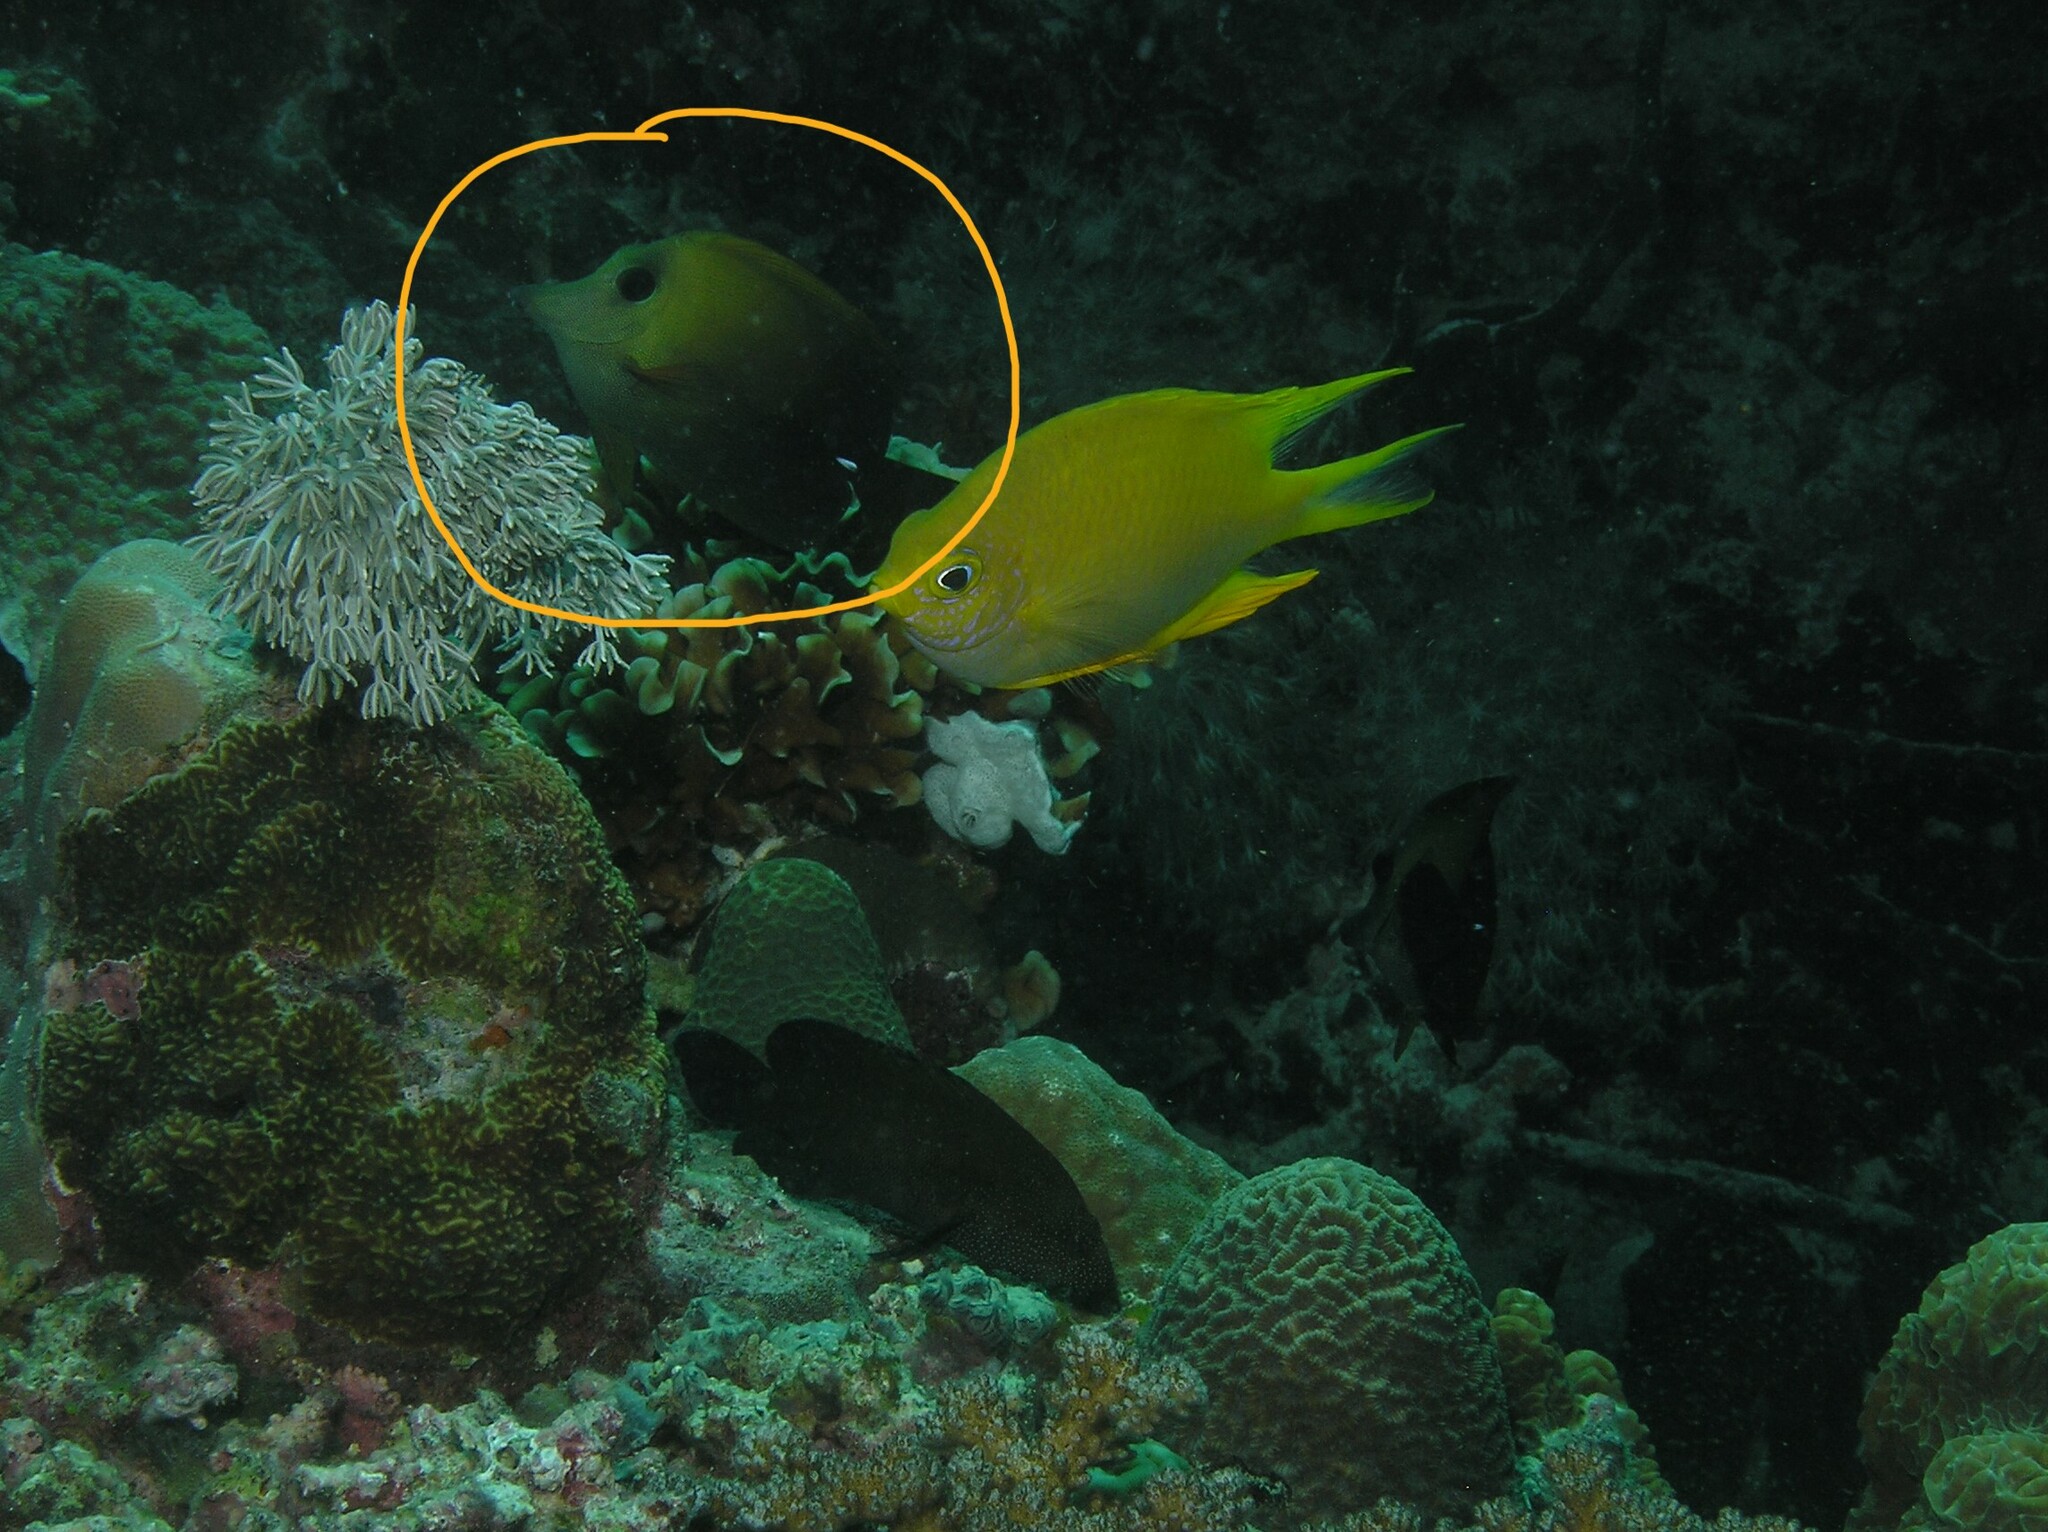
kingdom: Animalia
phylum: Chordata
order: Perciformes
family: Acanthuridae
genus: Zebrasoma
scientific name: Zebrasoma scopas
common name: Twotone tang
